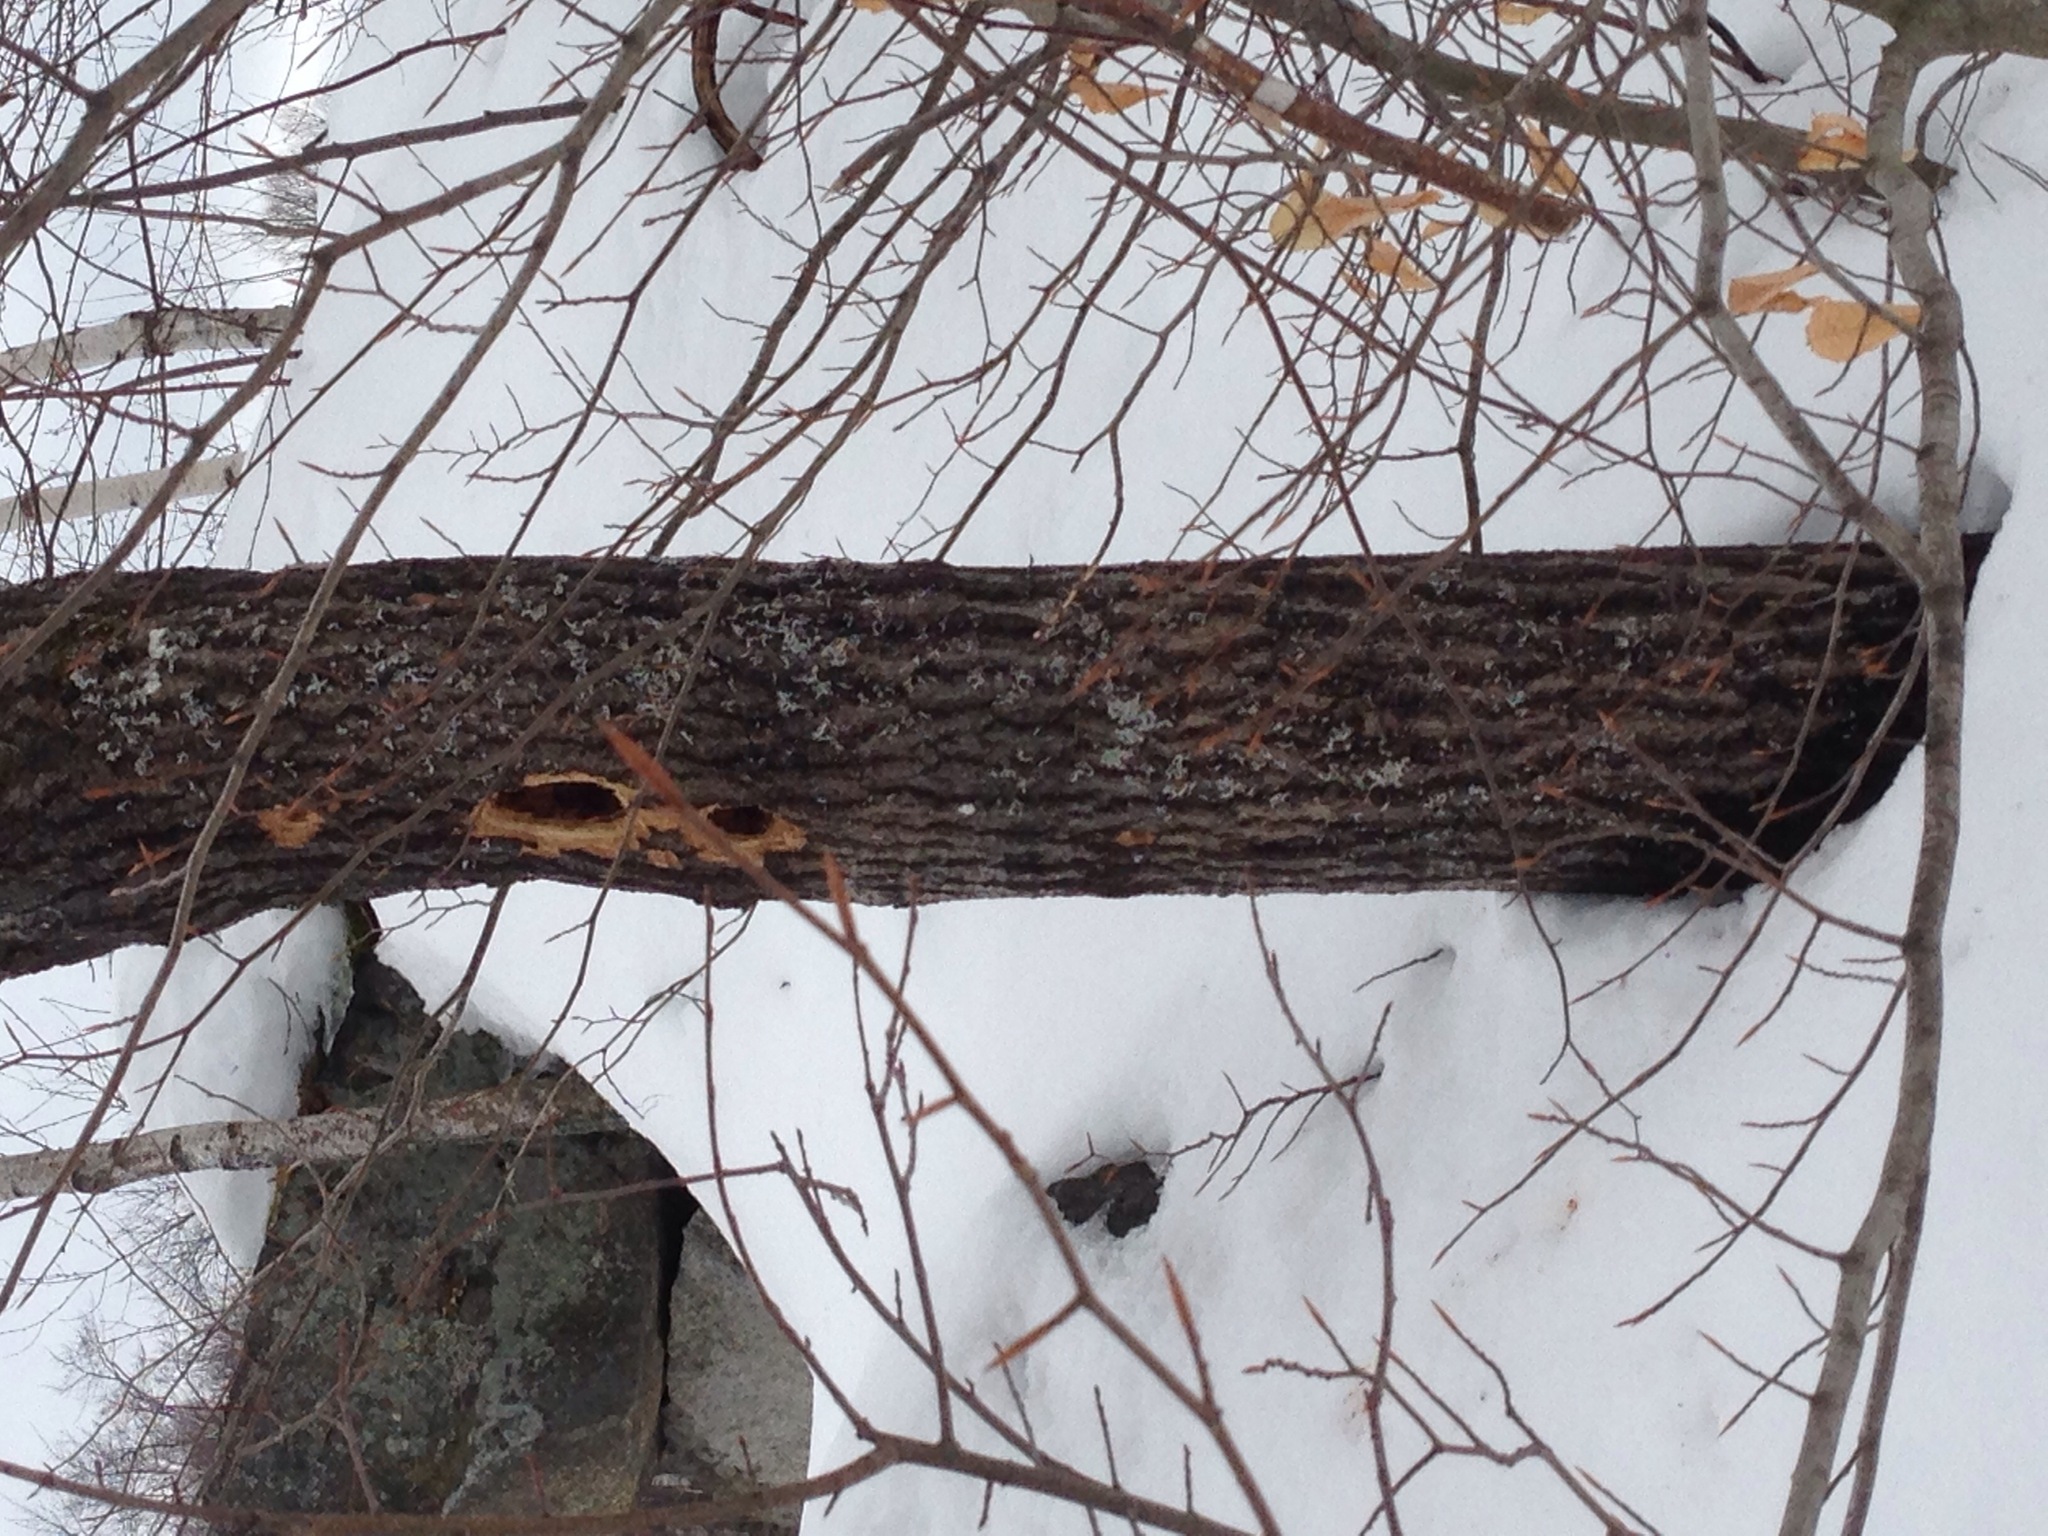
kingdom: Animalia
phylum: Chordata
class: Aves
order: Piciformes
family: Picidae
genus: Dryocopus
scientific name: Dryocopus pileatus
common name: Pileated woodpecker
